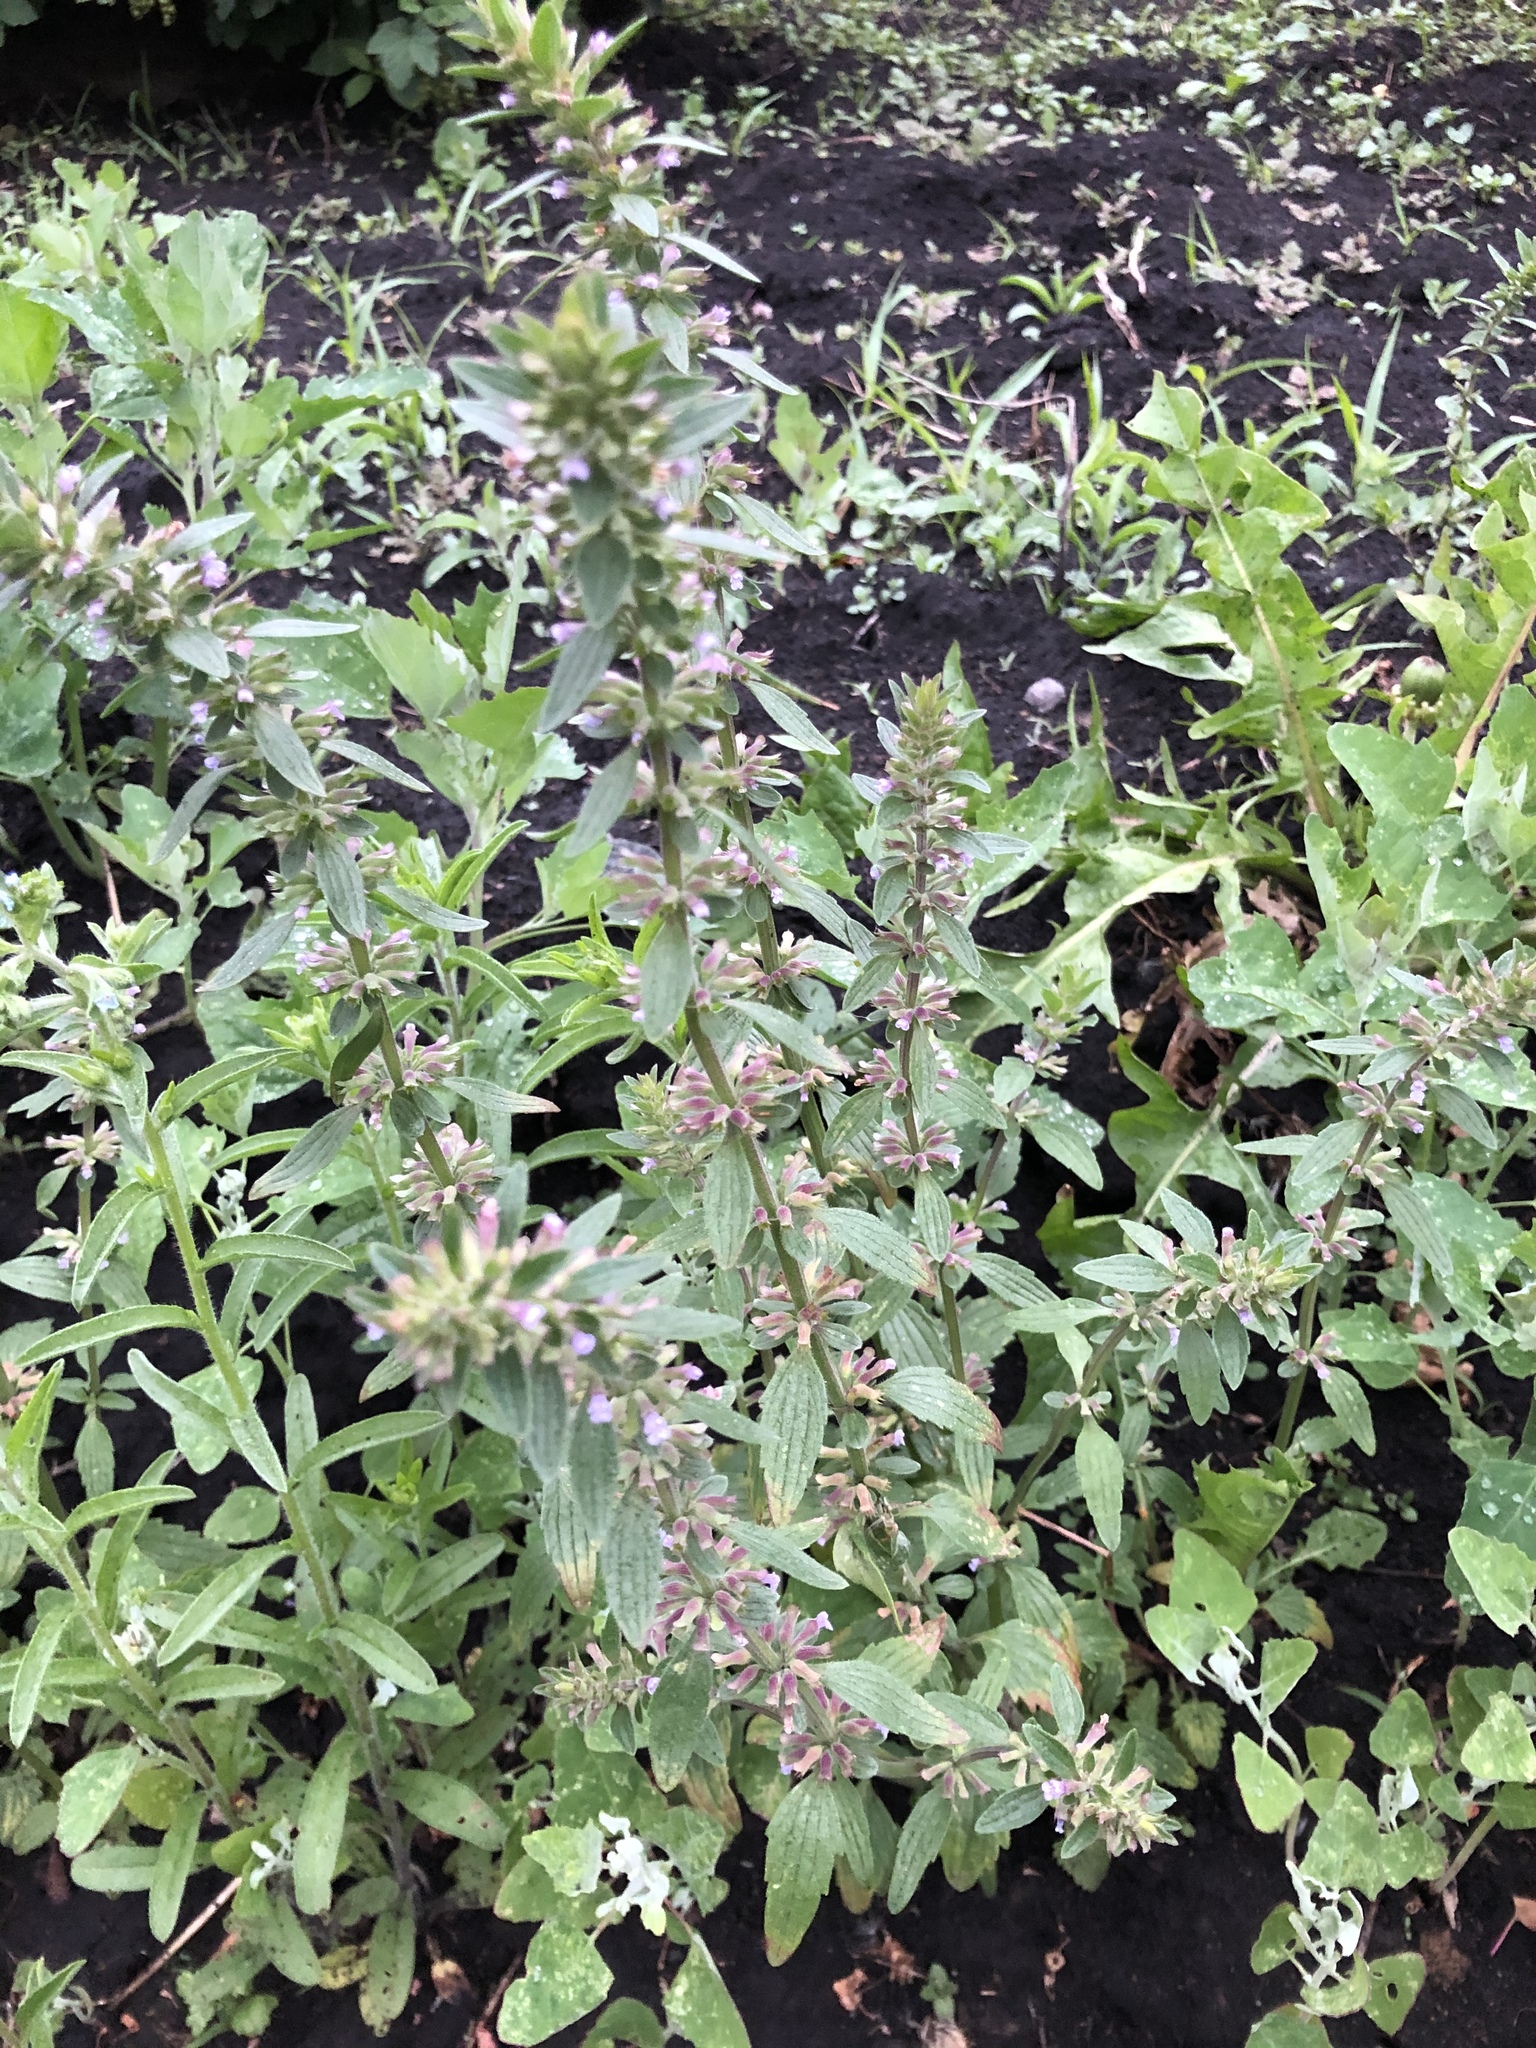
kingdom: Plantae
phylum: Tracheophyta
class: Magnoliopsida
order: Lamiales
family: Lamiaceae
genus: Dracocephalum
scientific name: Dracocephalum thymiflorum
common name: Thymeleaf dragonhead
